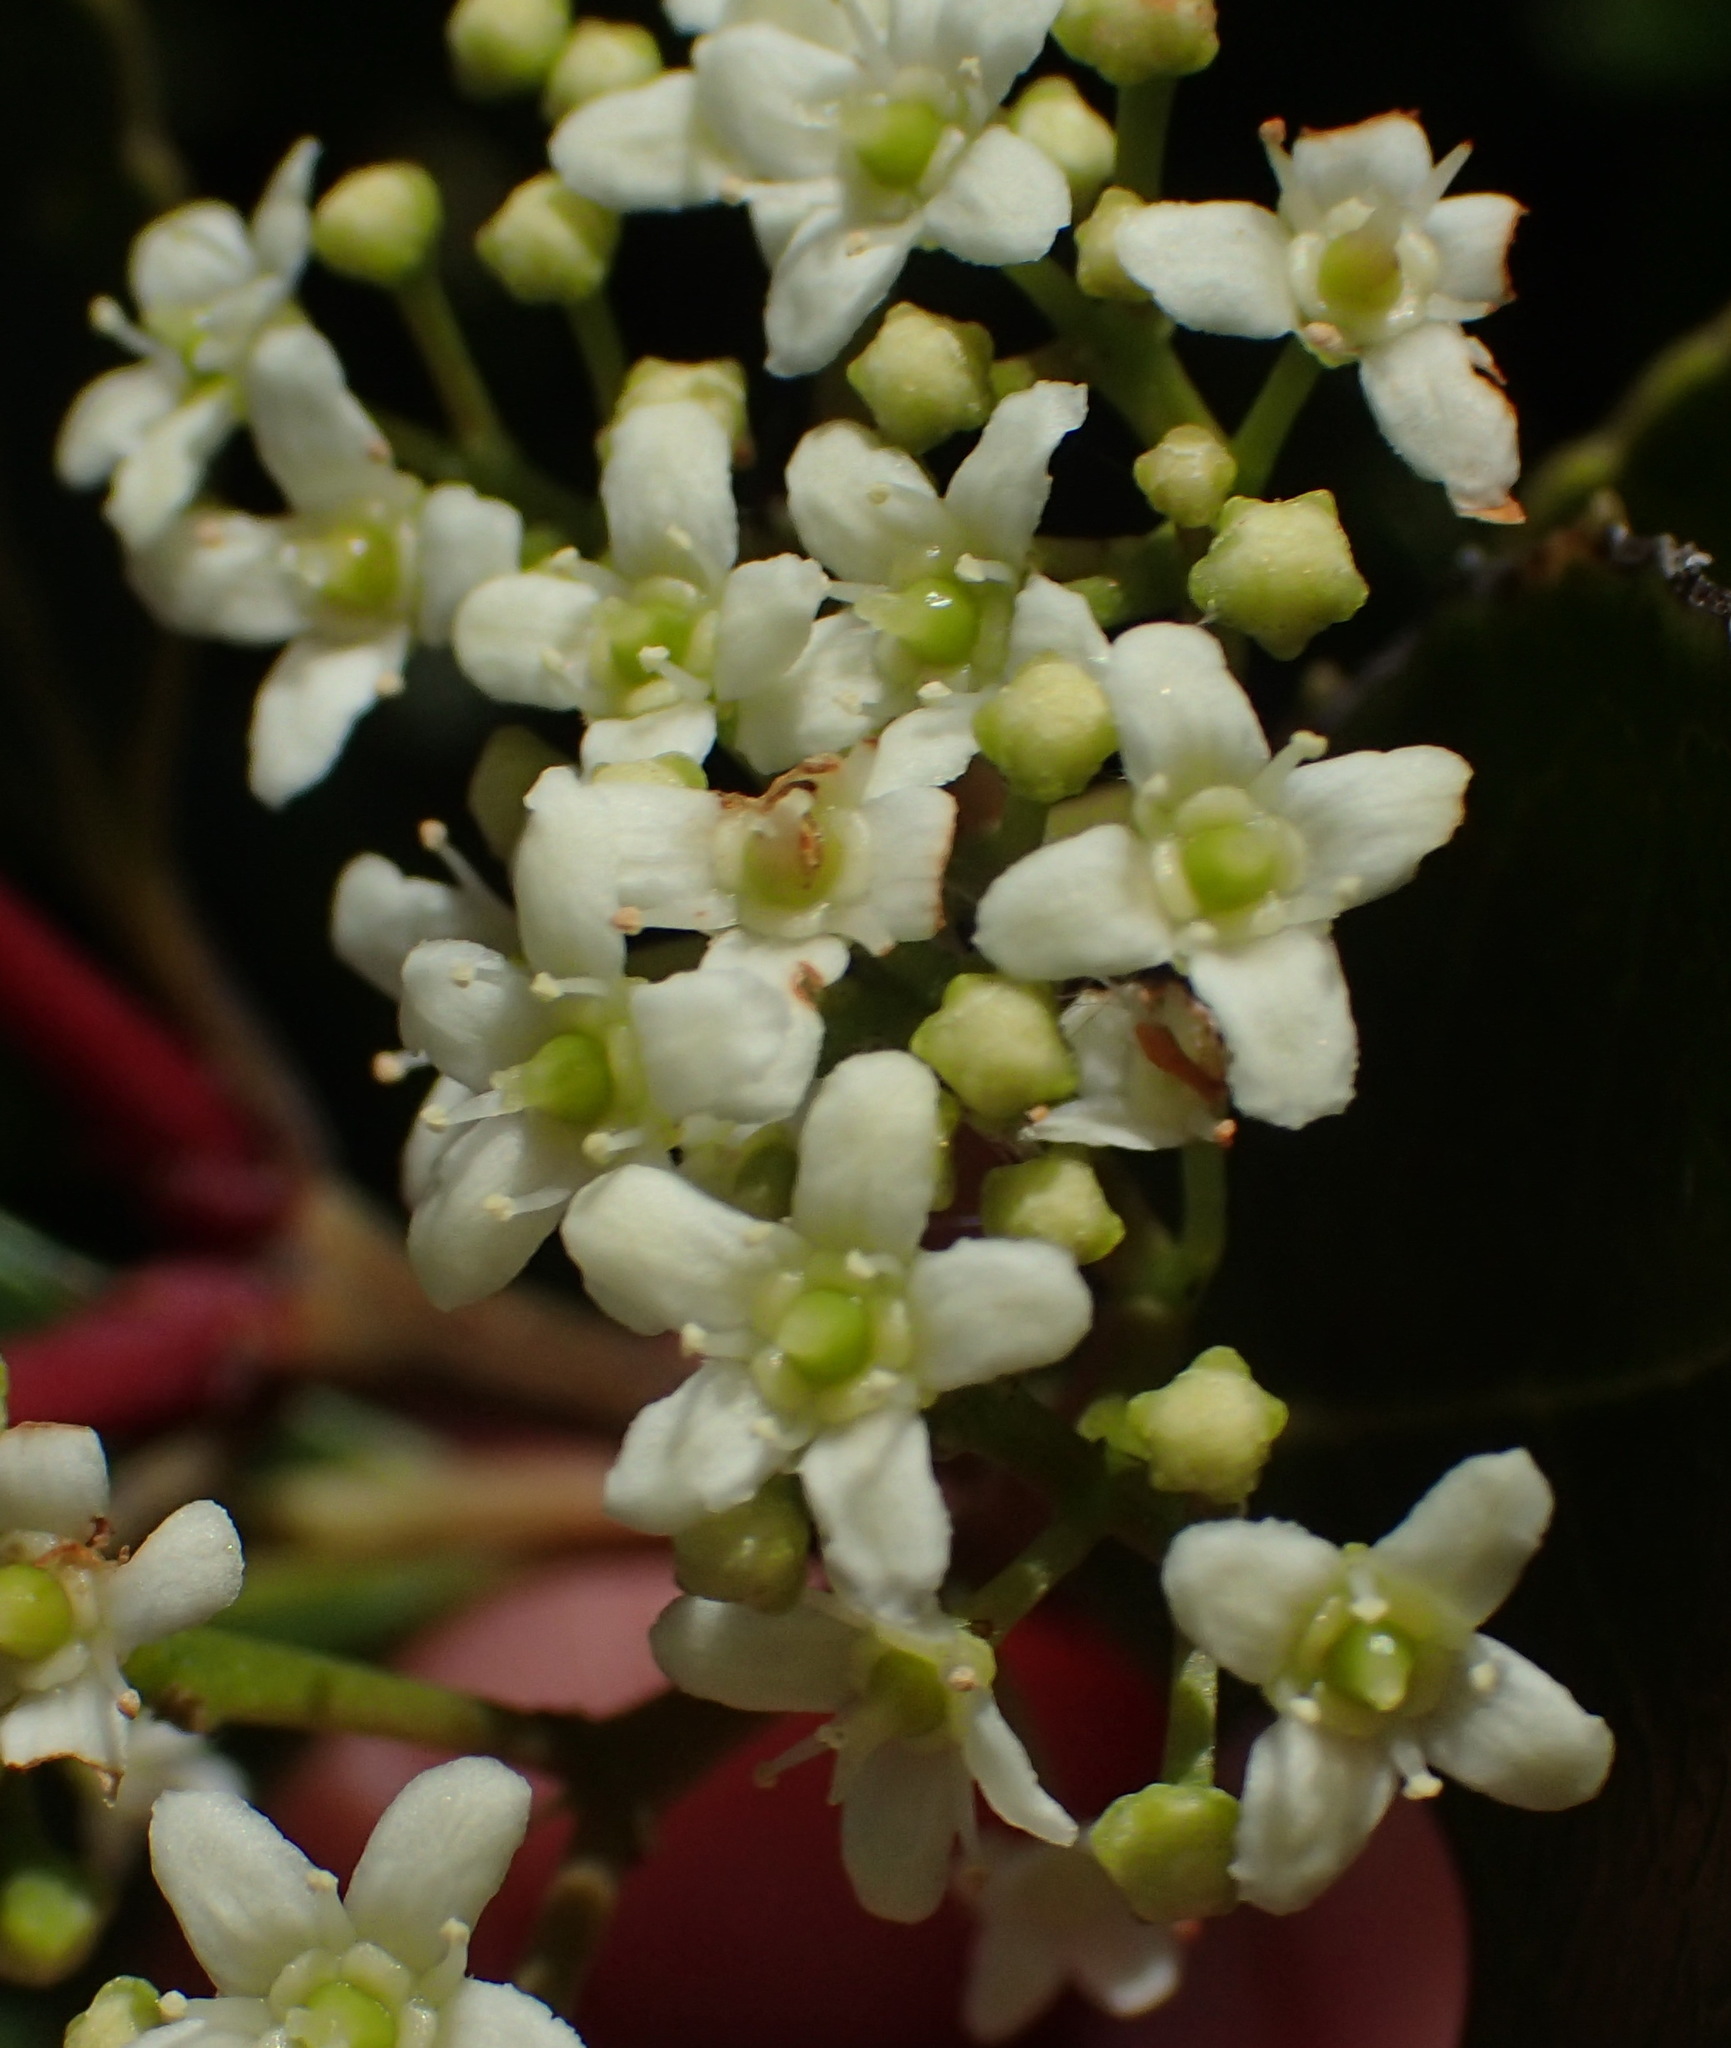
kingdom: Plantae
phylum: Tracheophyta
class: Magnoliopsida
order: Celastrales
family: Celastraceae
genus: Cassine
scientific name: Cassine peragua
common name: Cape saffron
